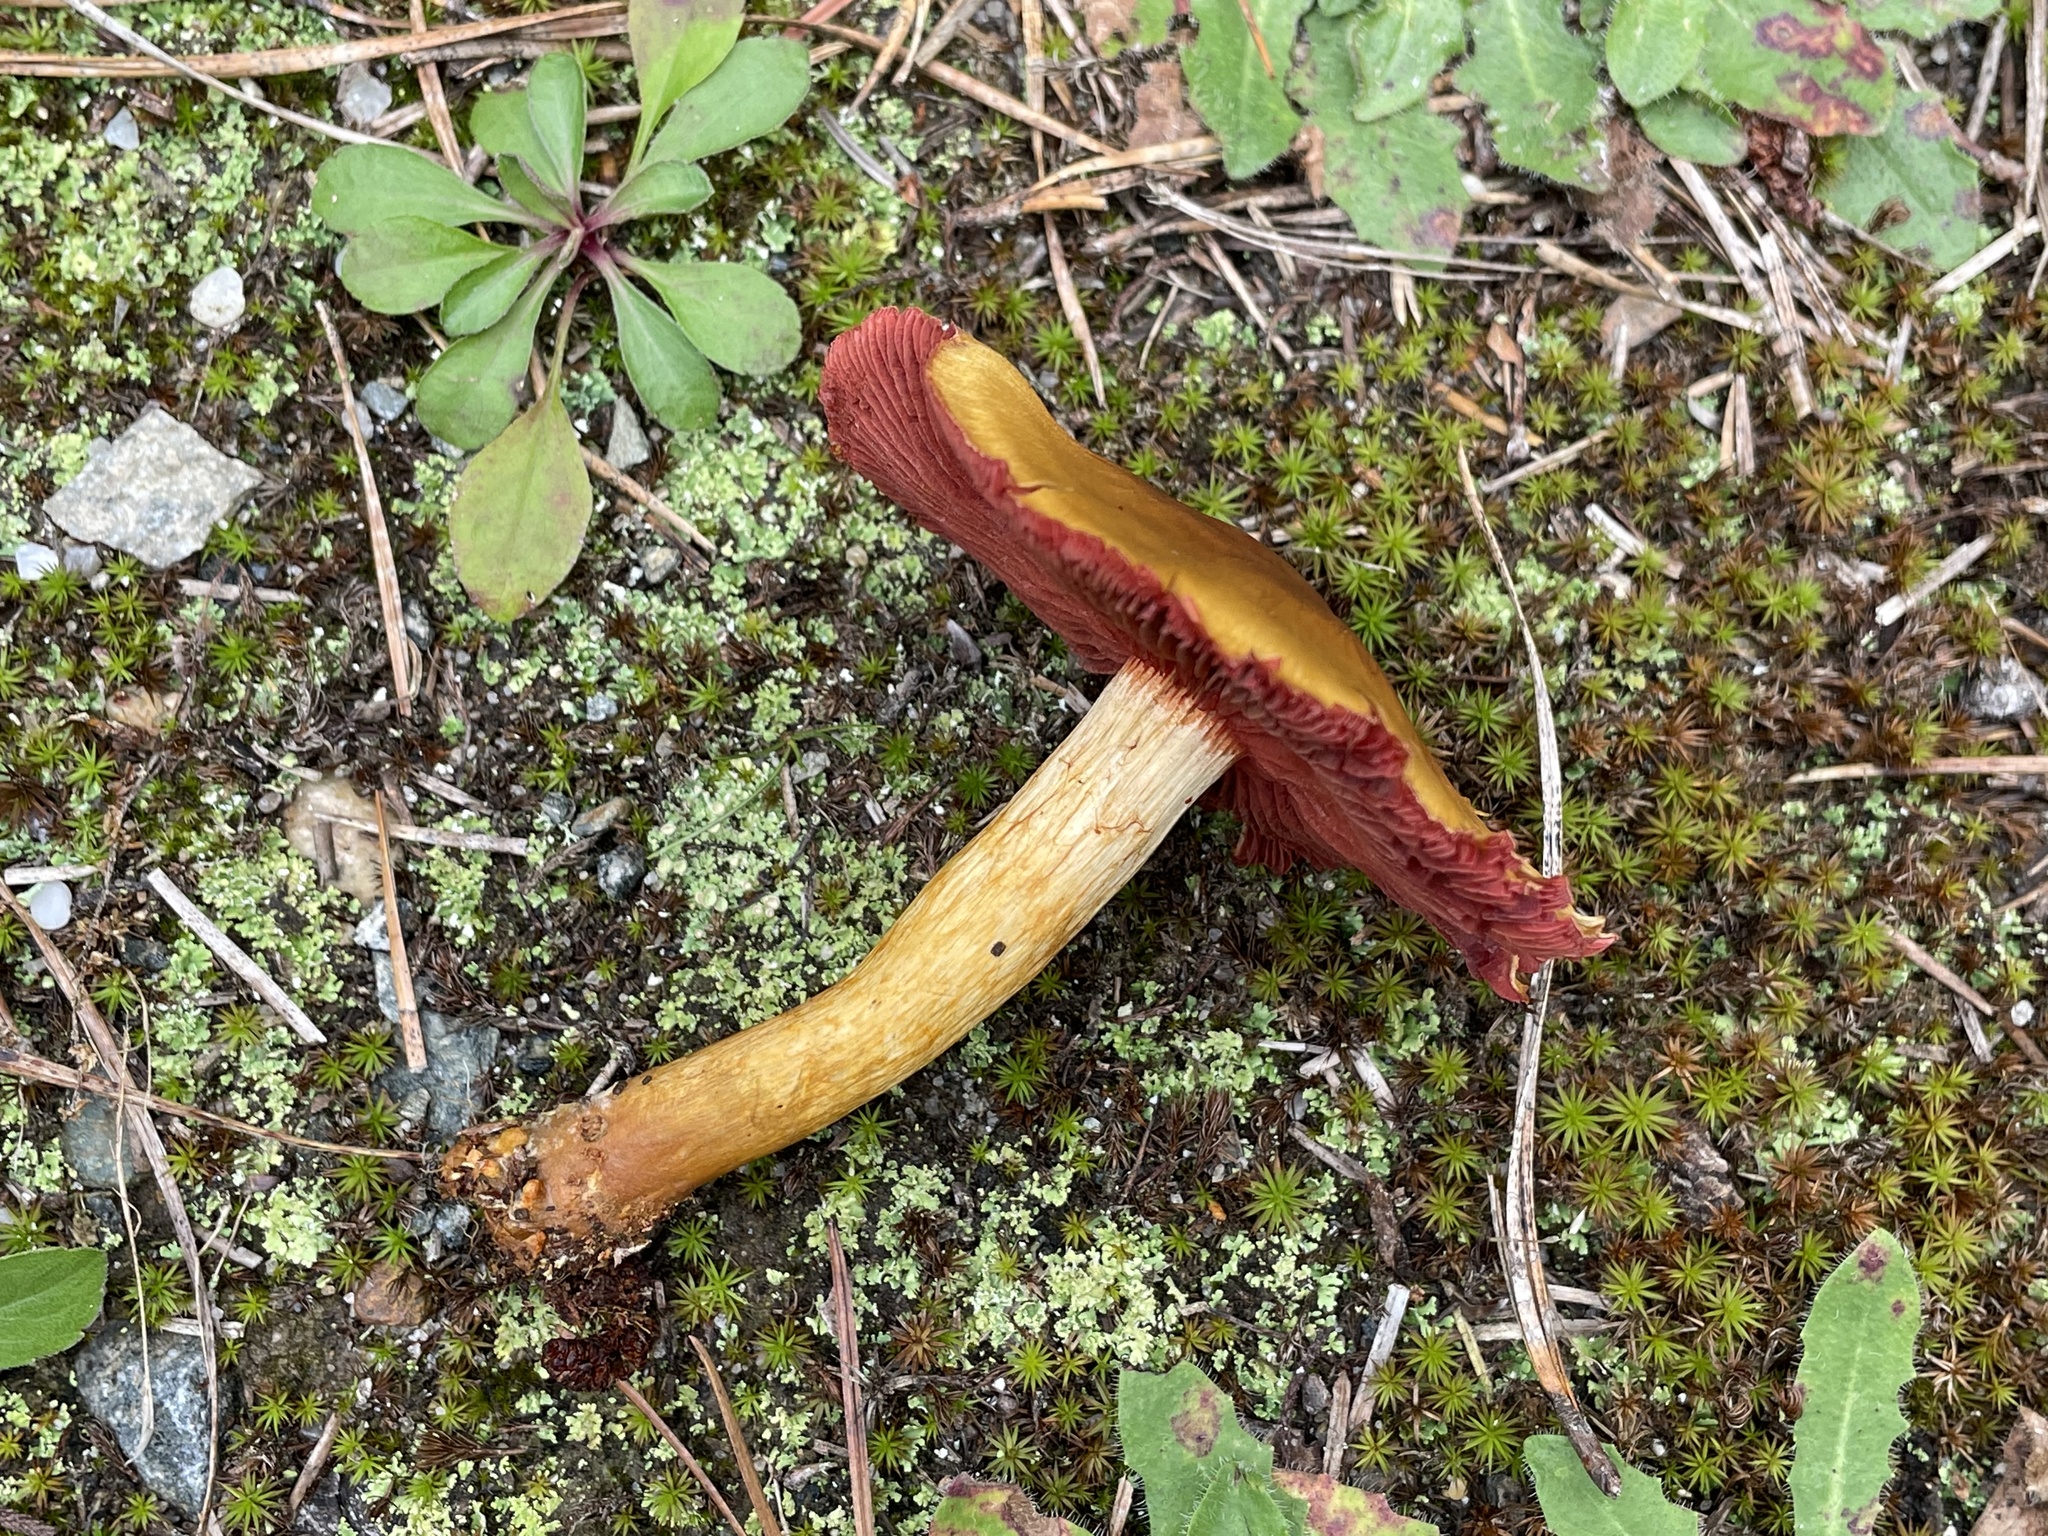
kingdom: Fungi
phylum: Basidiomycota
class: Agaricomycetes
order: Agaricales
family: Cortinariaceae
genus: Cortinarius
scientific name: Cortinarius semisanguineus
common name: Surprise webcap
